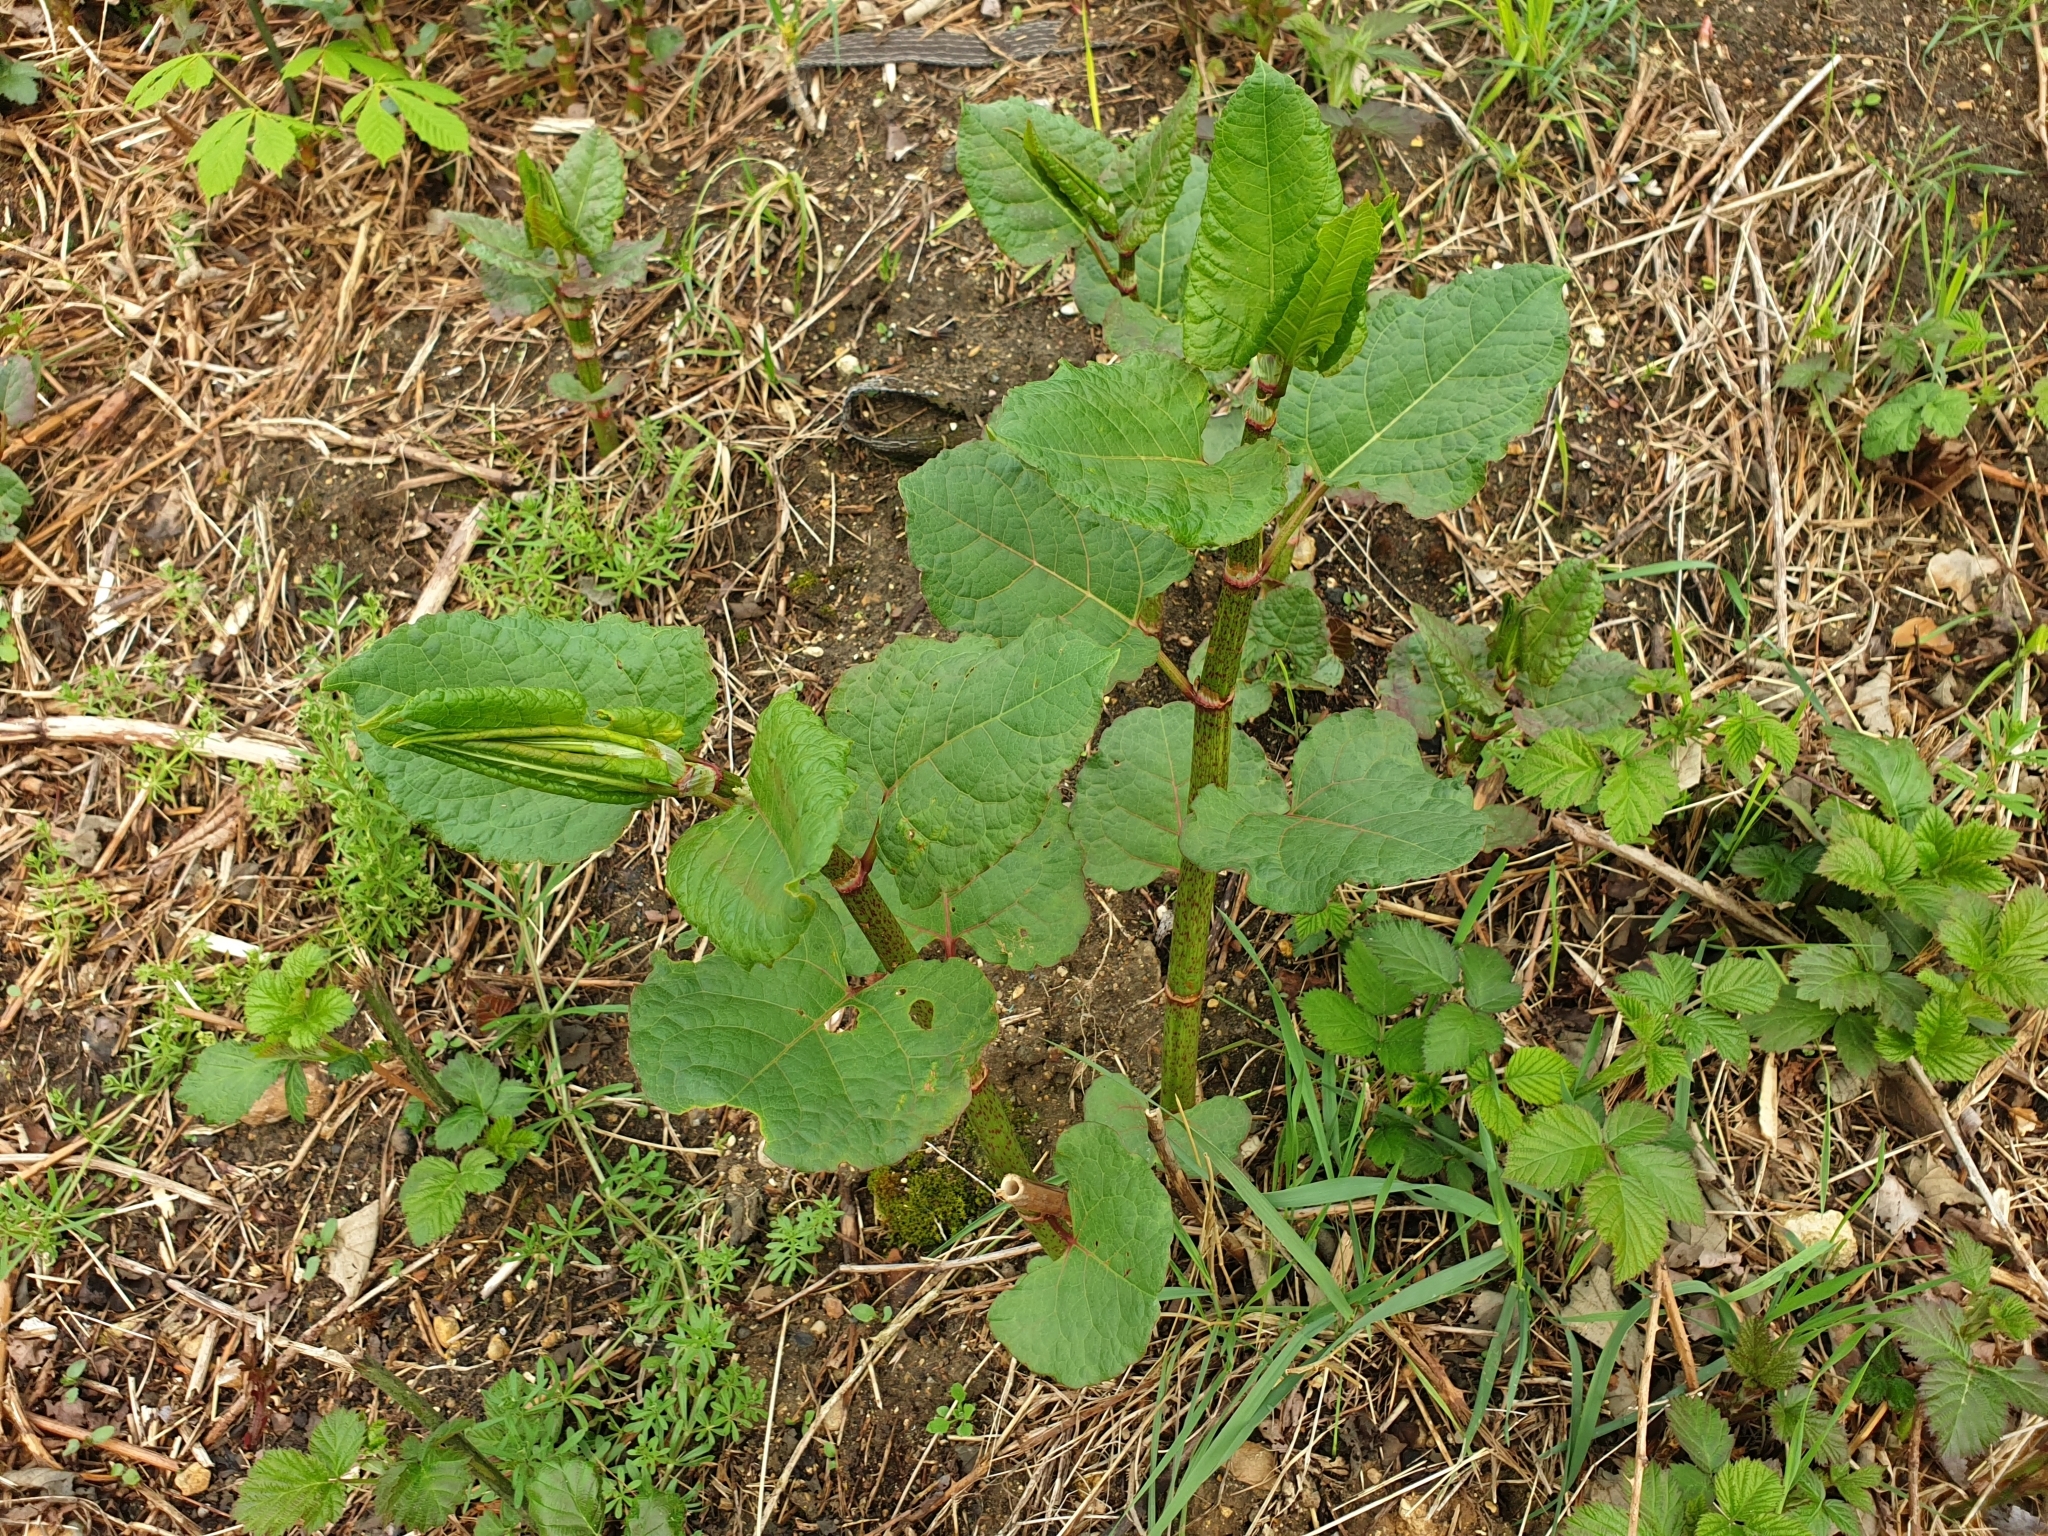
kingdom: Plantae
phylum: Tracheophyta
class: Magnoliopsida
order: Caryophyllales
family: Polygonaceae
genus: Reynoutria
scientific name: Reynoutria bohemica
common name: Bohemian knotweed
